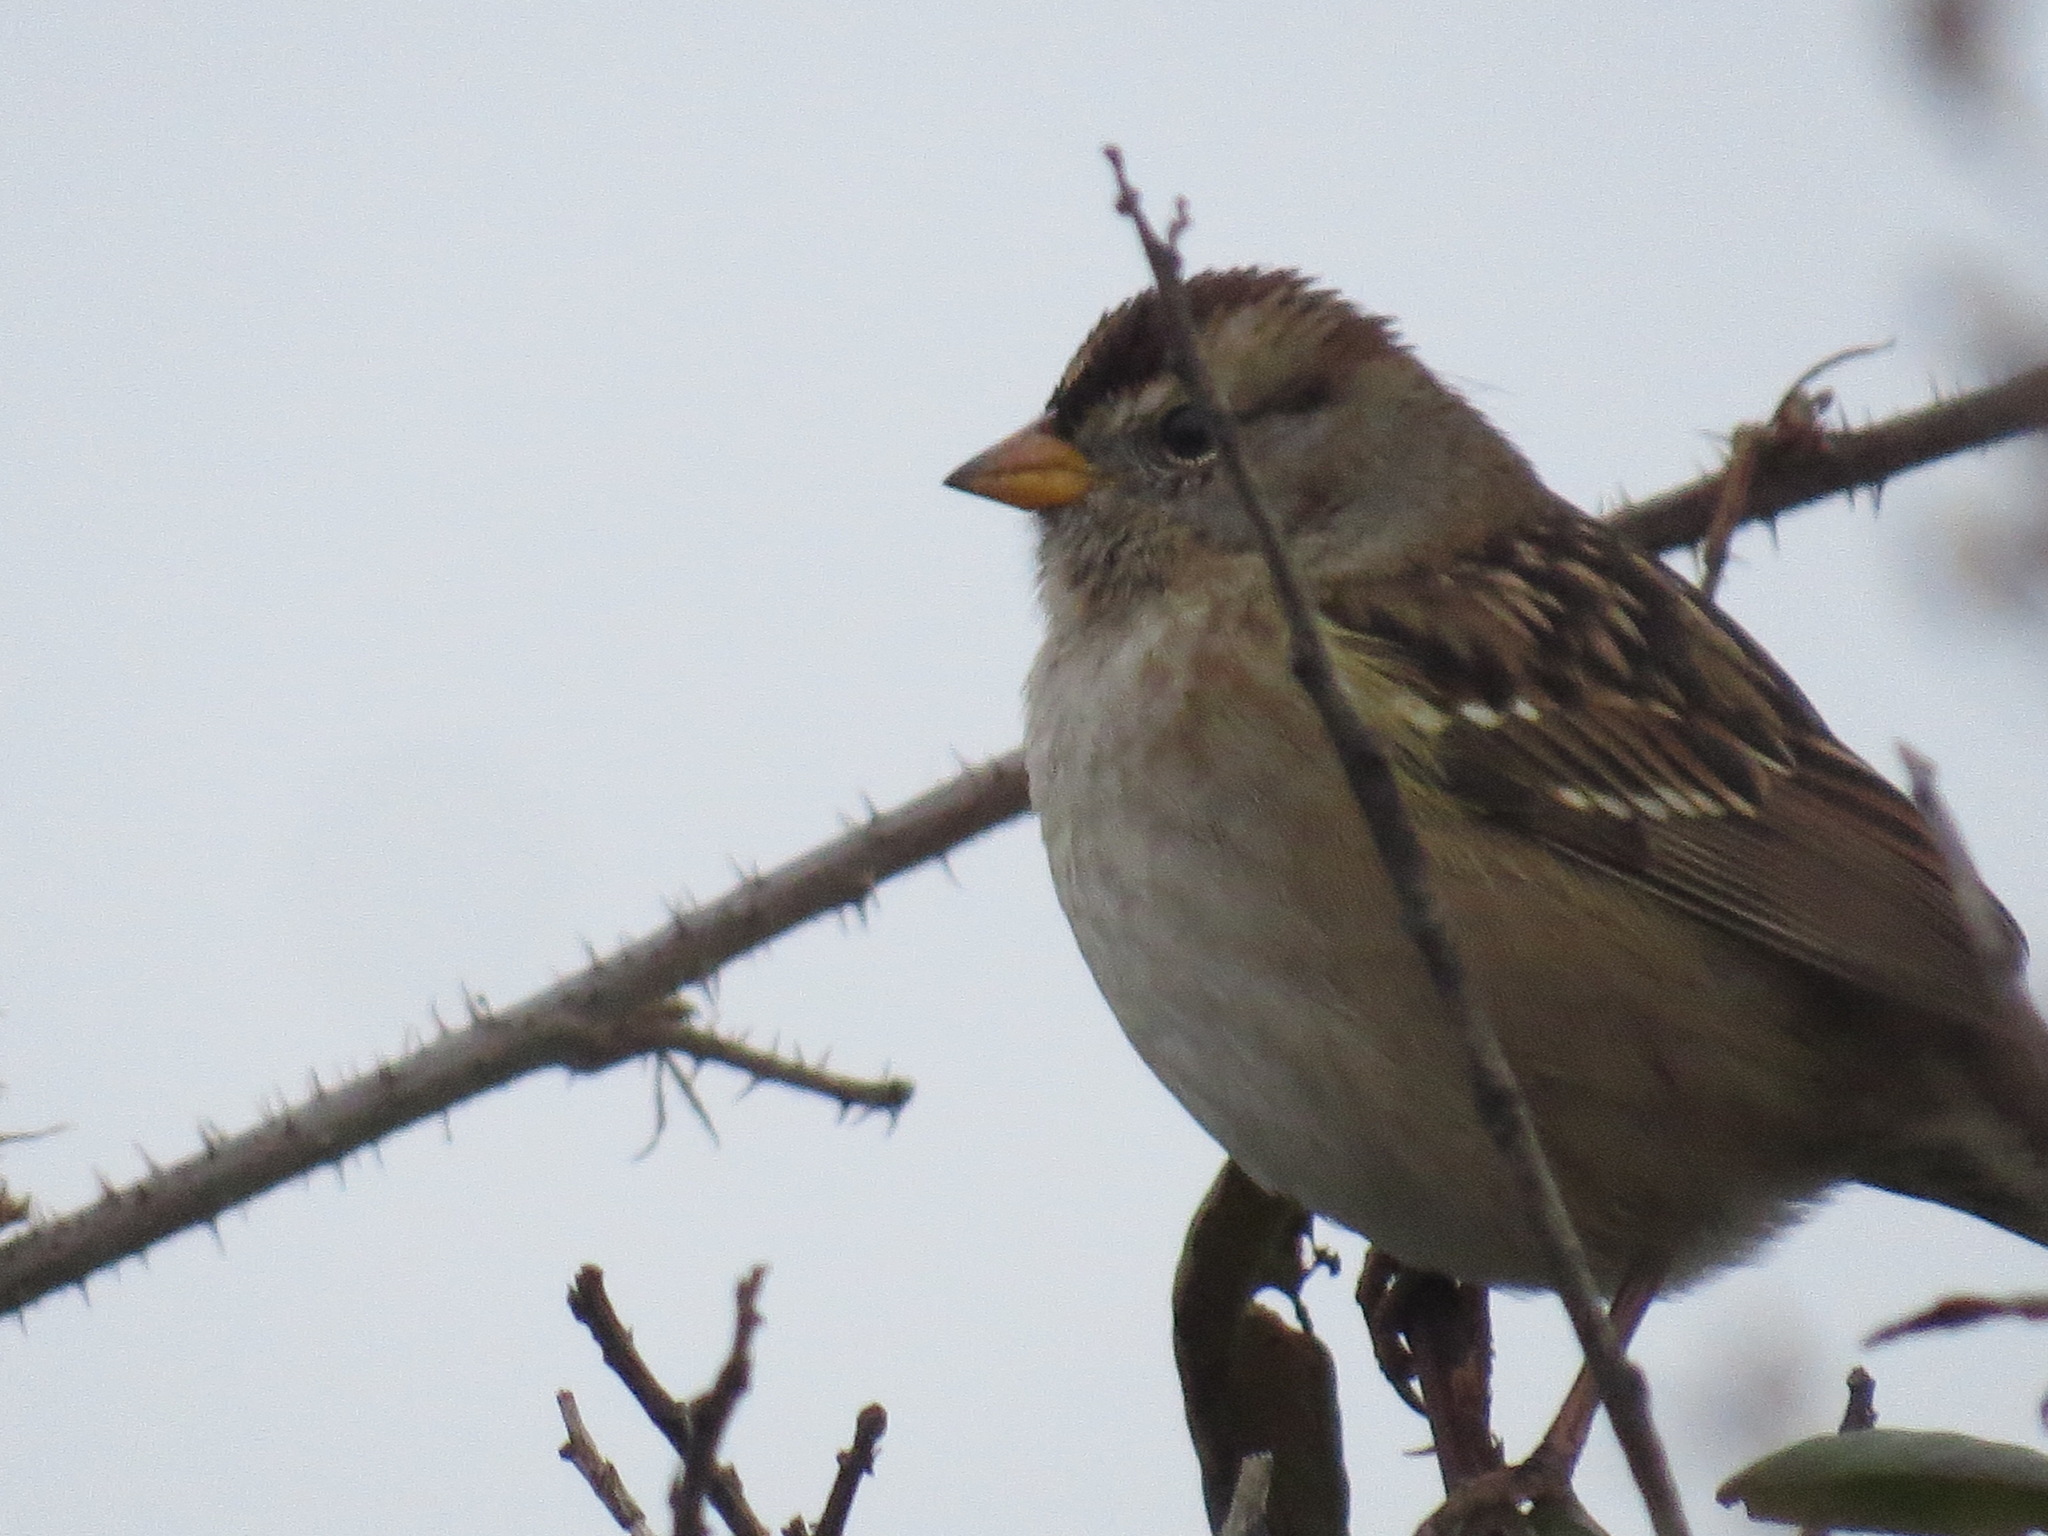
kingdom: Animalia
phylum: Chordata
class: Aves
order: Passeriformes
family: Passerellidae
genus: Zonotrichia
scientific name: Zonotrichia leucophrys
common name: White-crowned sparrow
